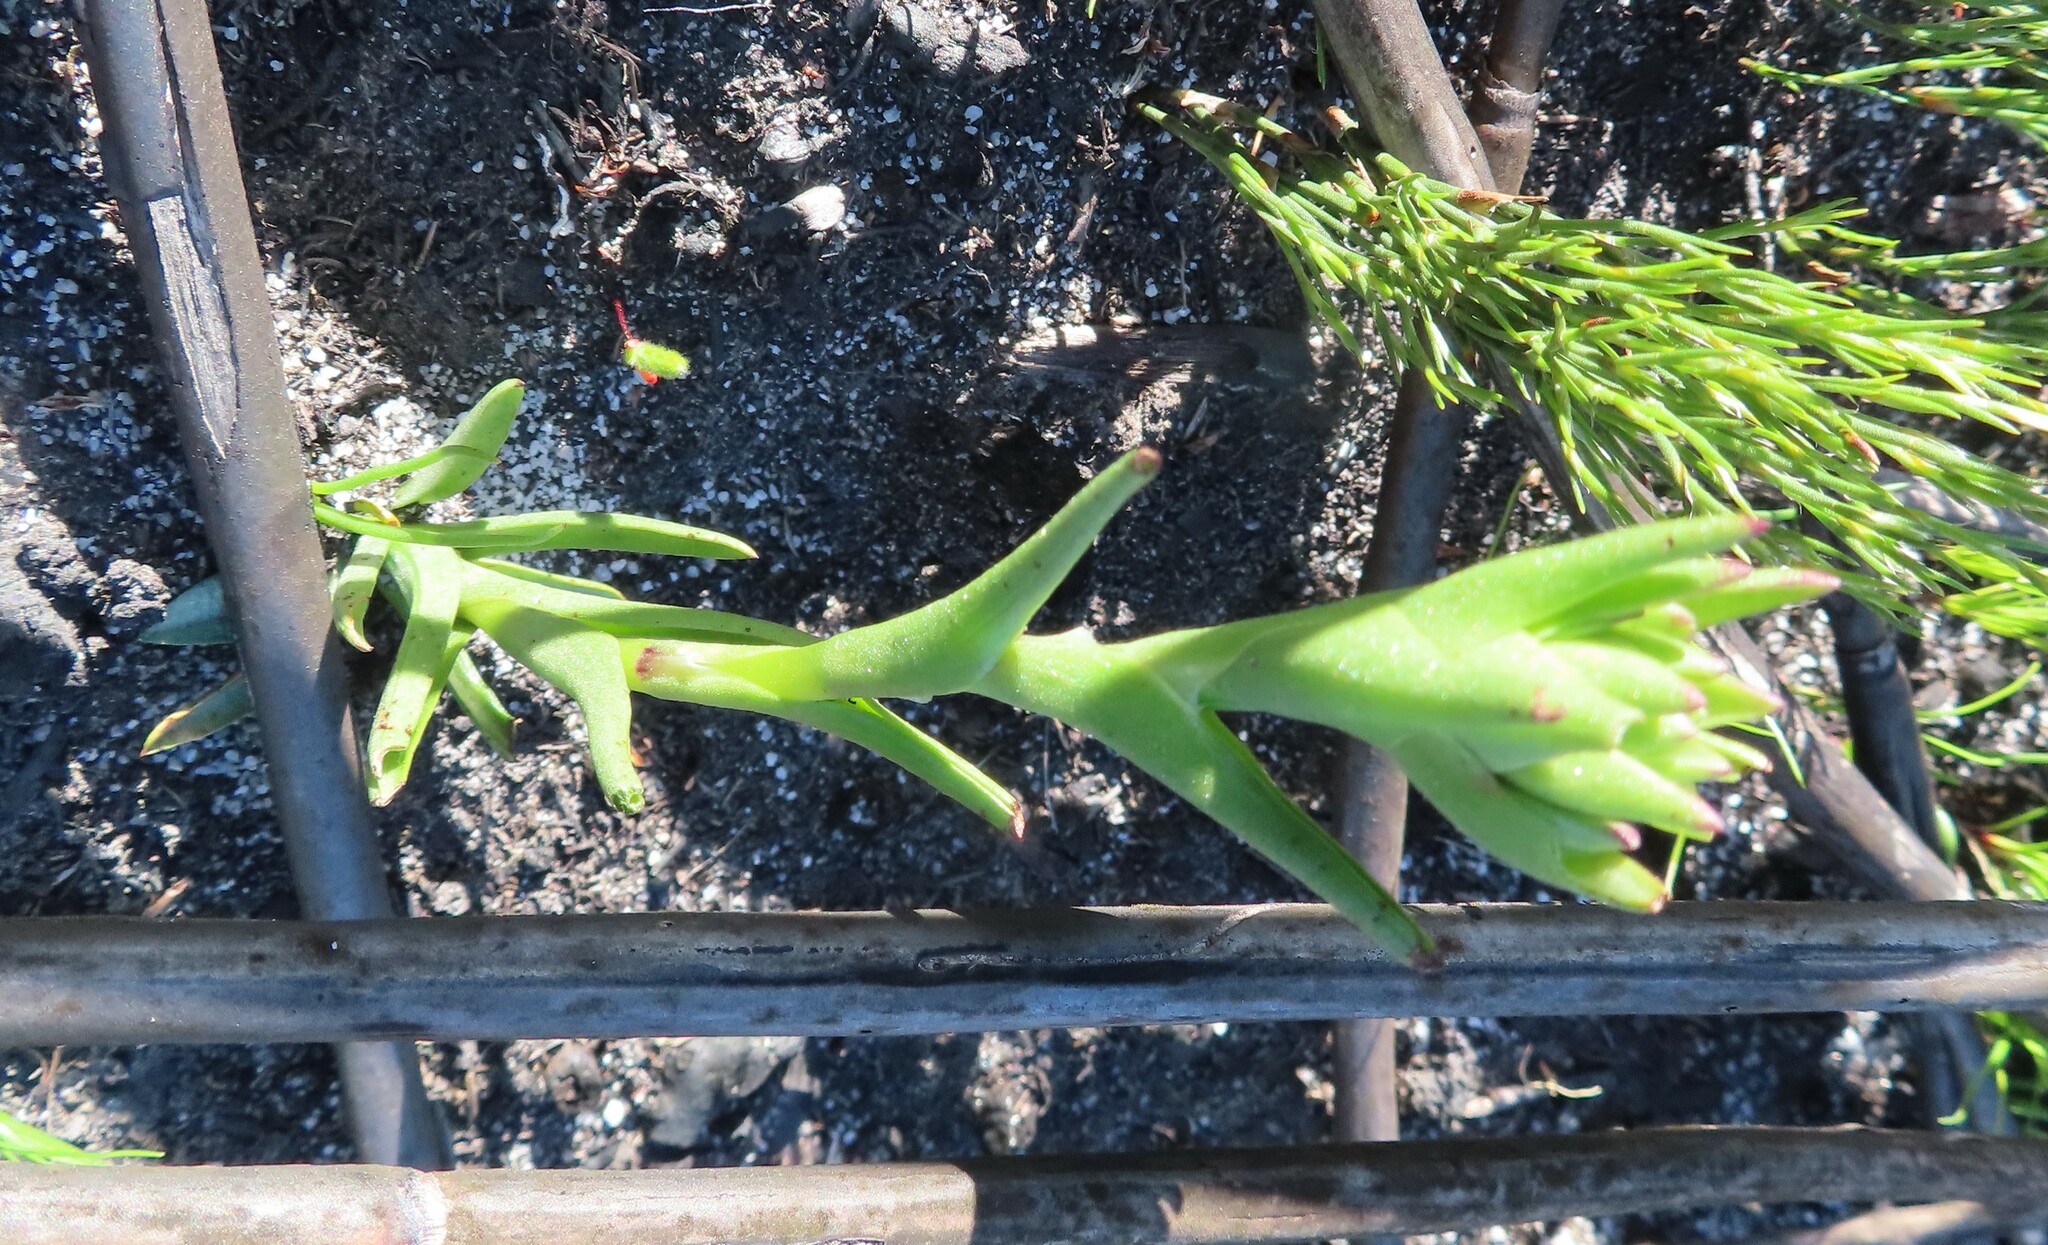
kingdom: Plantae
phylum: Tracheophyta
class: Liliopsida
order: Asparagales
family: Orchidaceae
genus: Disa
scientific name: Disa bivalvata
